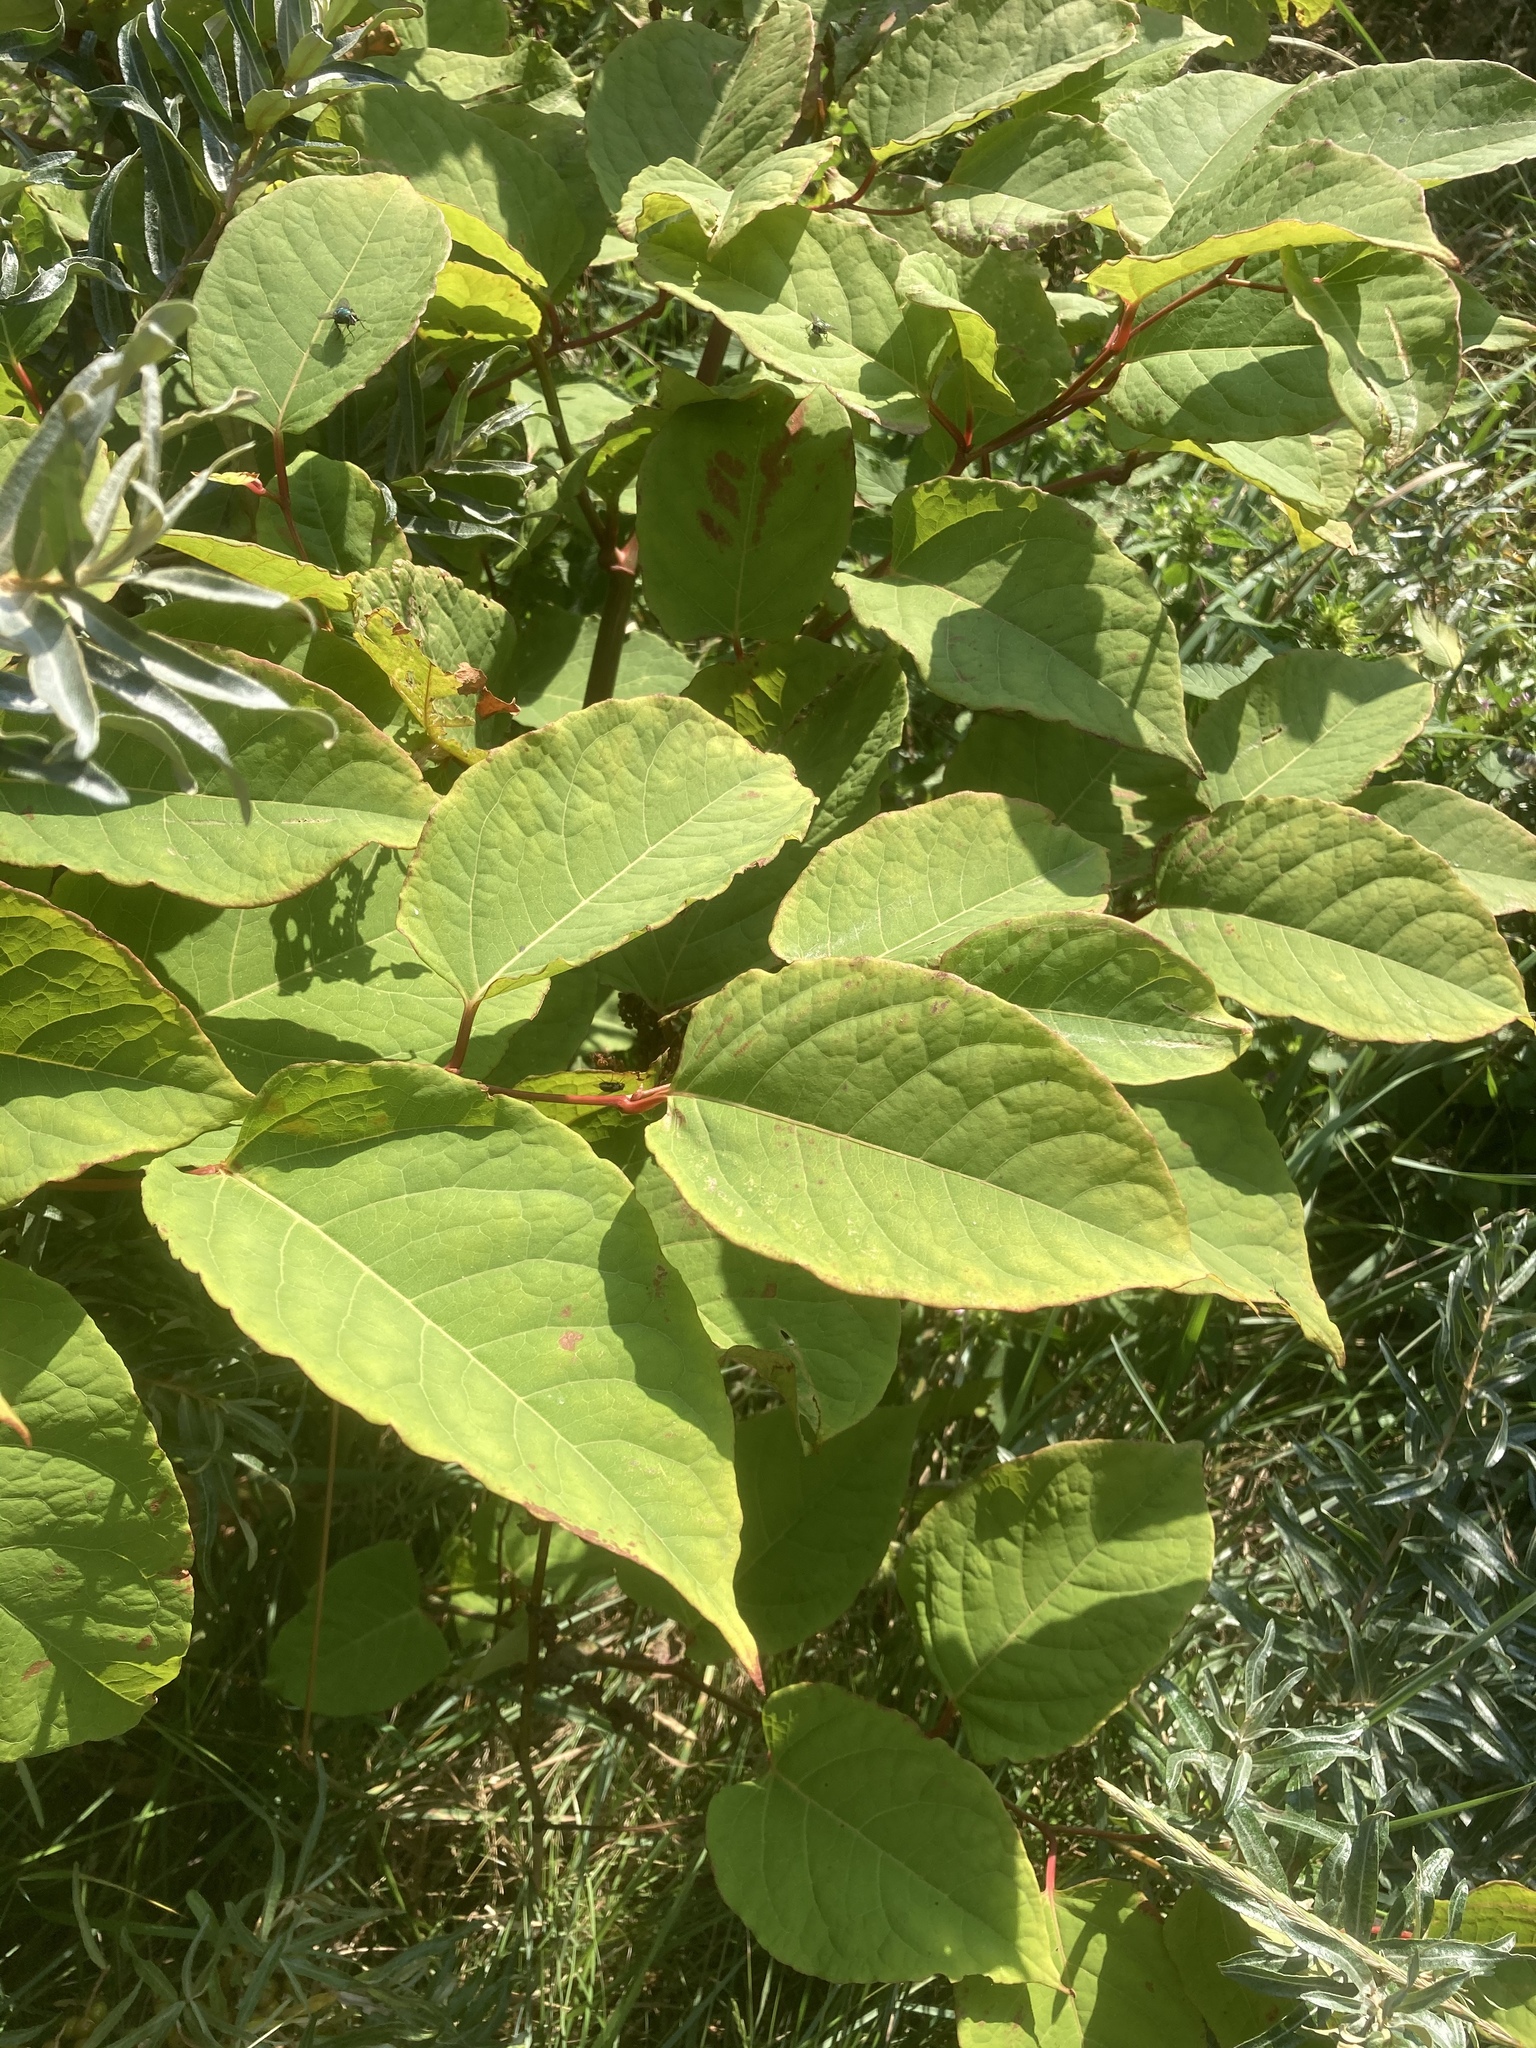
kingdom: Plantae
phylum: Tracheophyta
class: Magnoliopsida
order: Caryophyllales
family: Polygonaceae
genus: Reynoutria
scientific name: Reynoutria japonica
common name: Japanese knotweed
